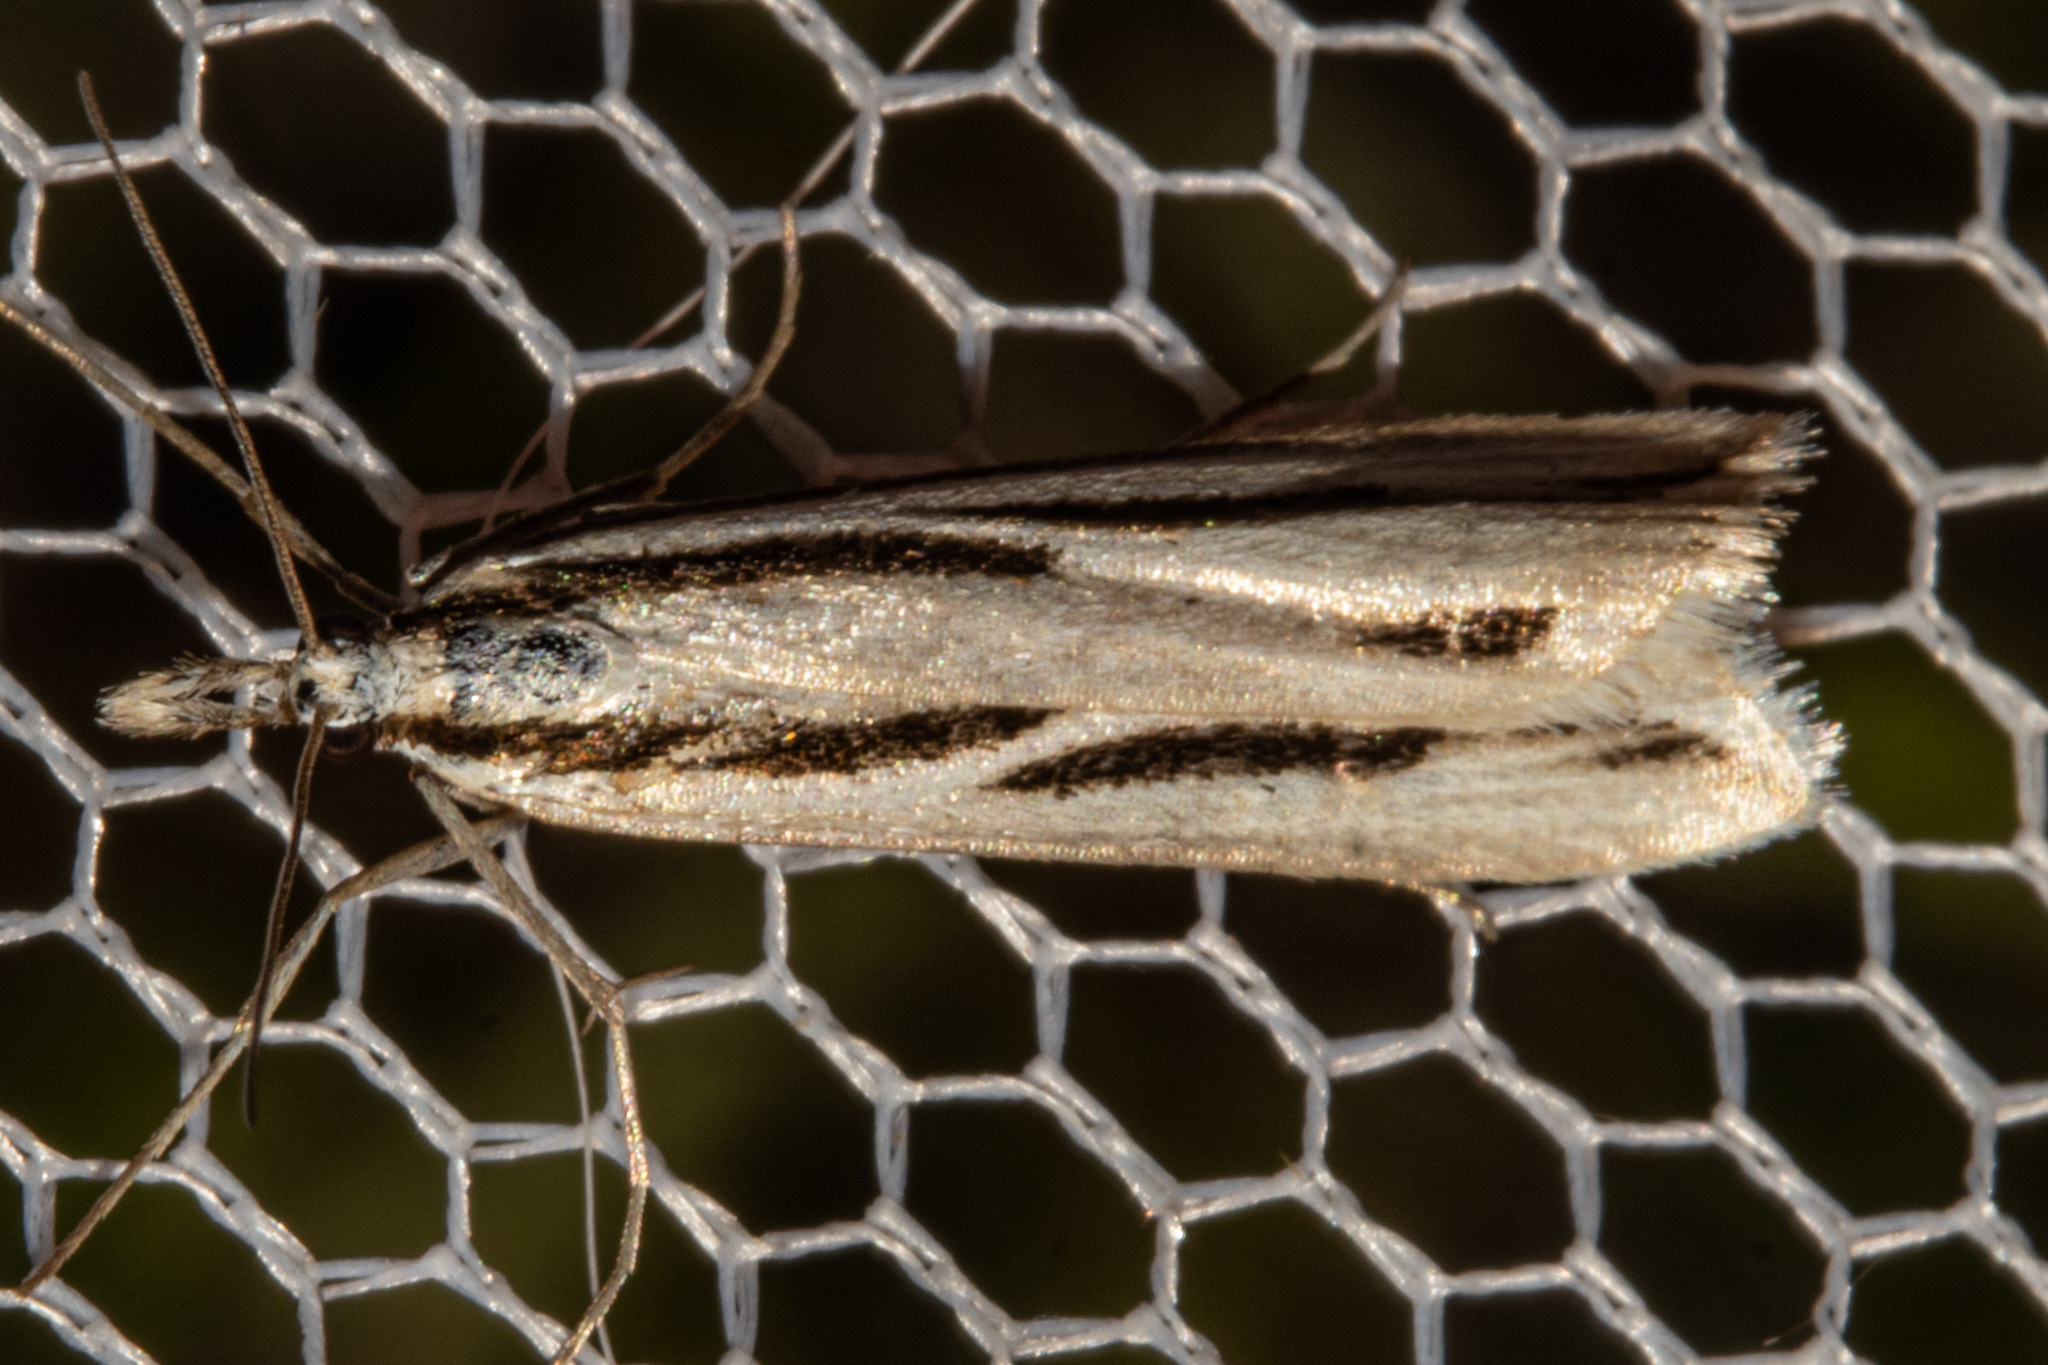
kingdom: Animalia
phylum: Arthropoda
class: Insecta
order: Lepidoptera
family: Crambidae
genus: Scoparia
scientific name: Scoparia claranota
